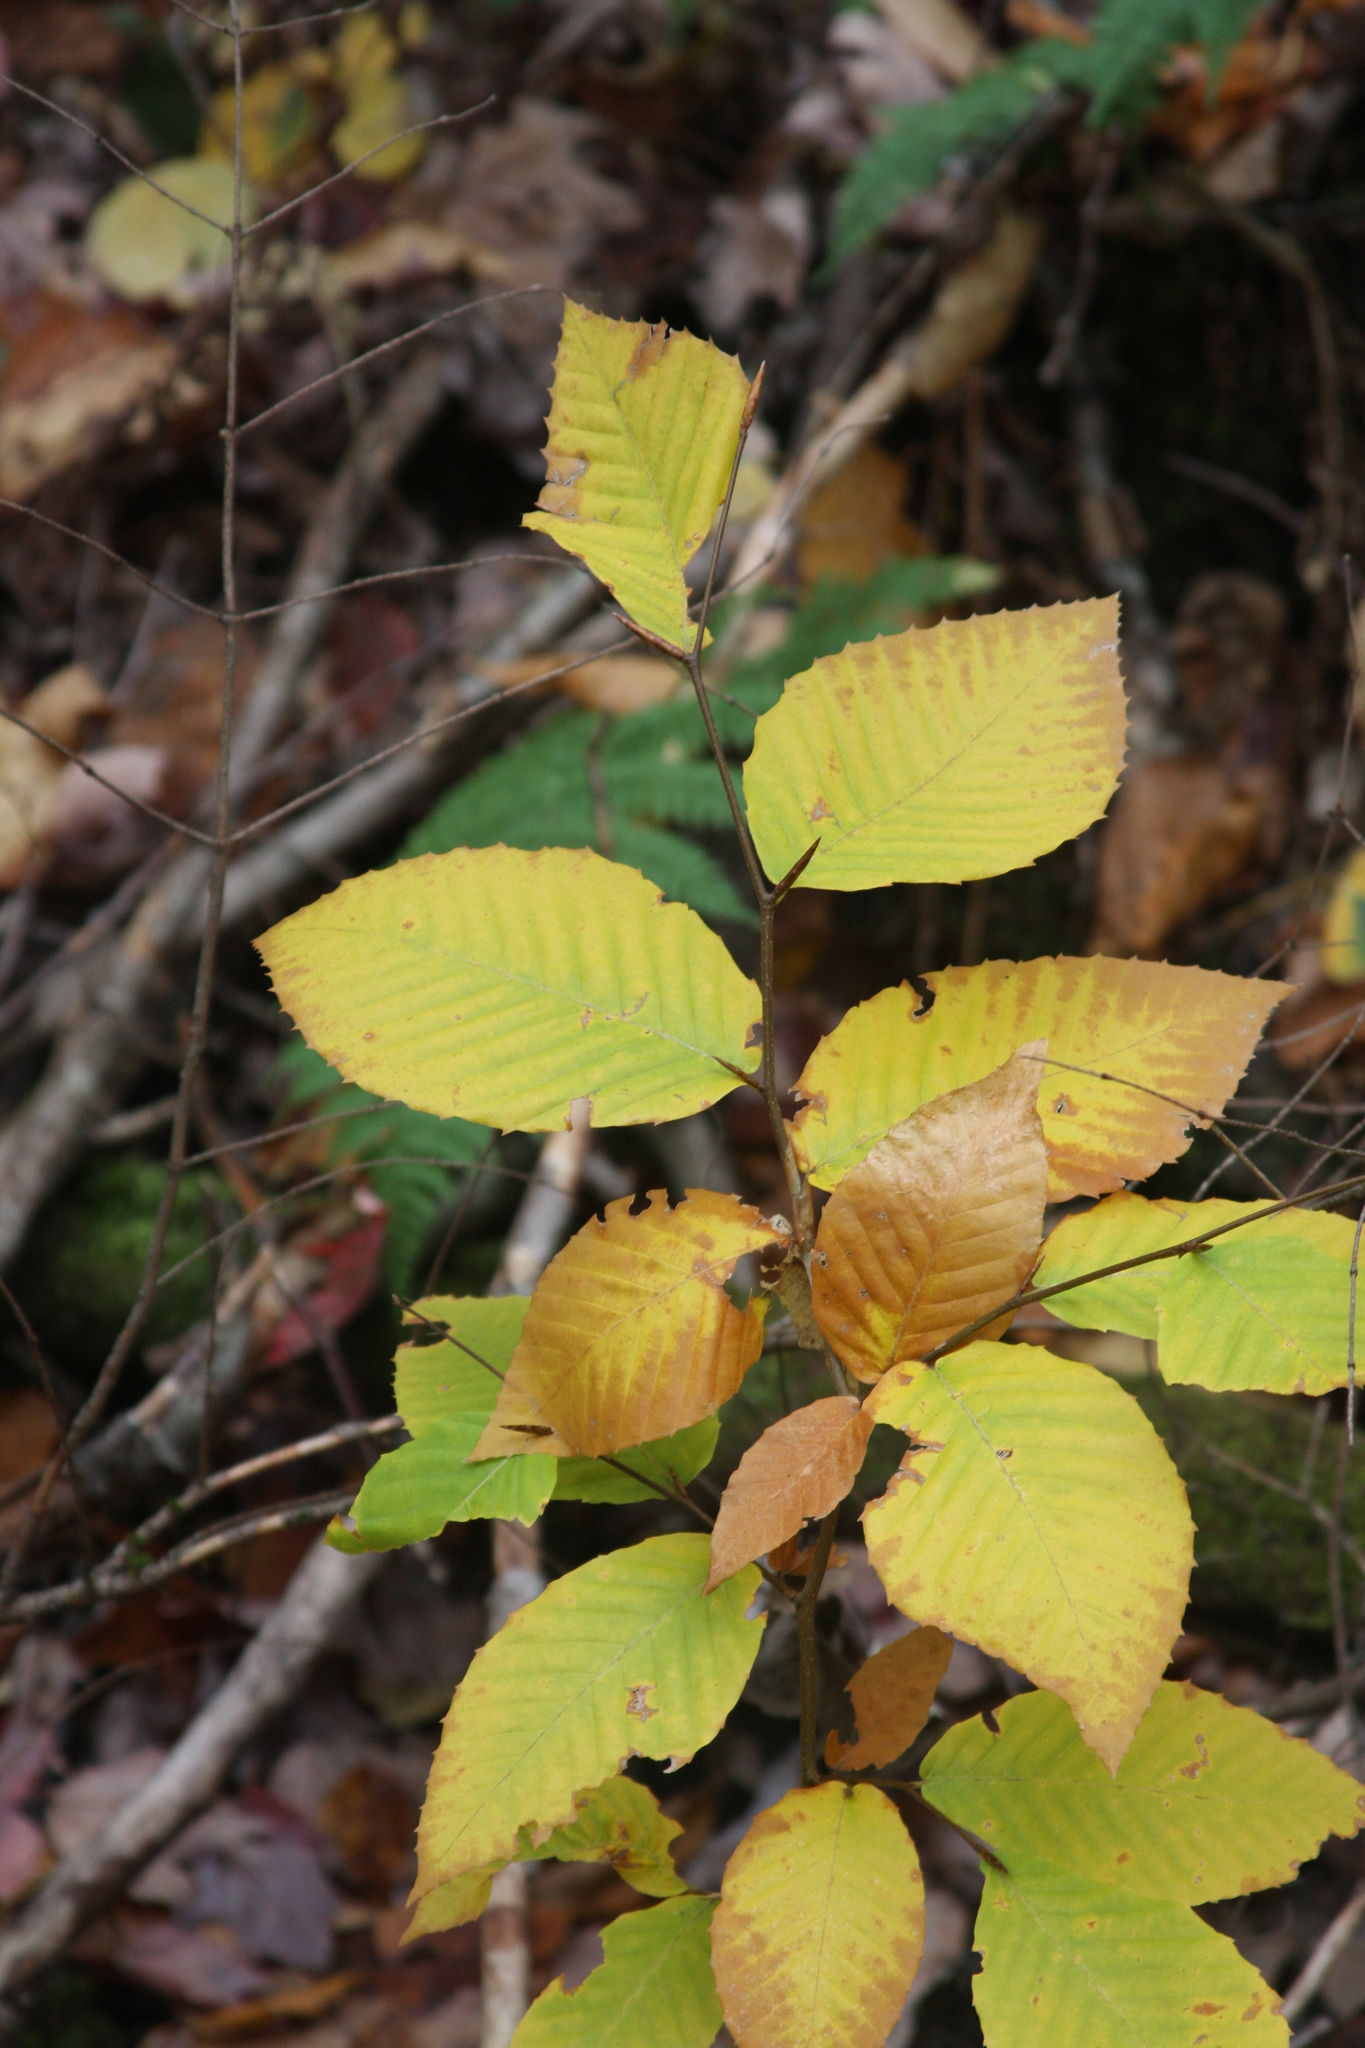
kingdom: Plantae
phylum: Tracheophyta
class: Magnoliopsida
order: Fagales
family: Fagaceae
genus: Fagus
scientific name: Fagus grandifolia
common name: American beech
